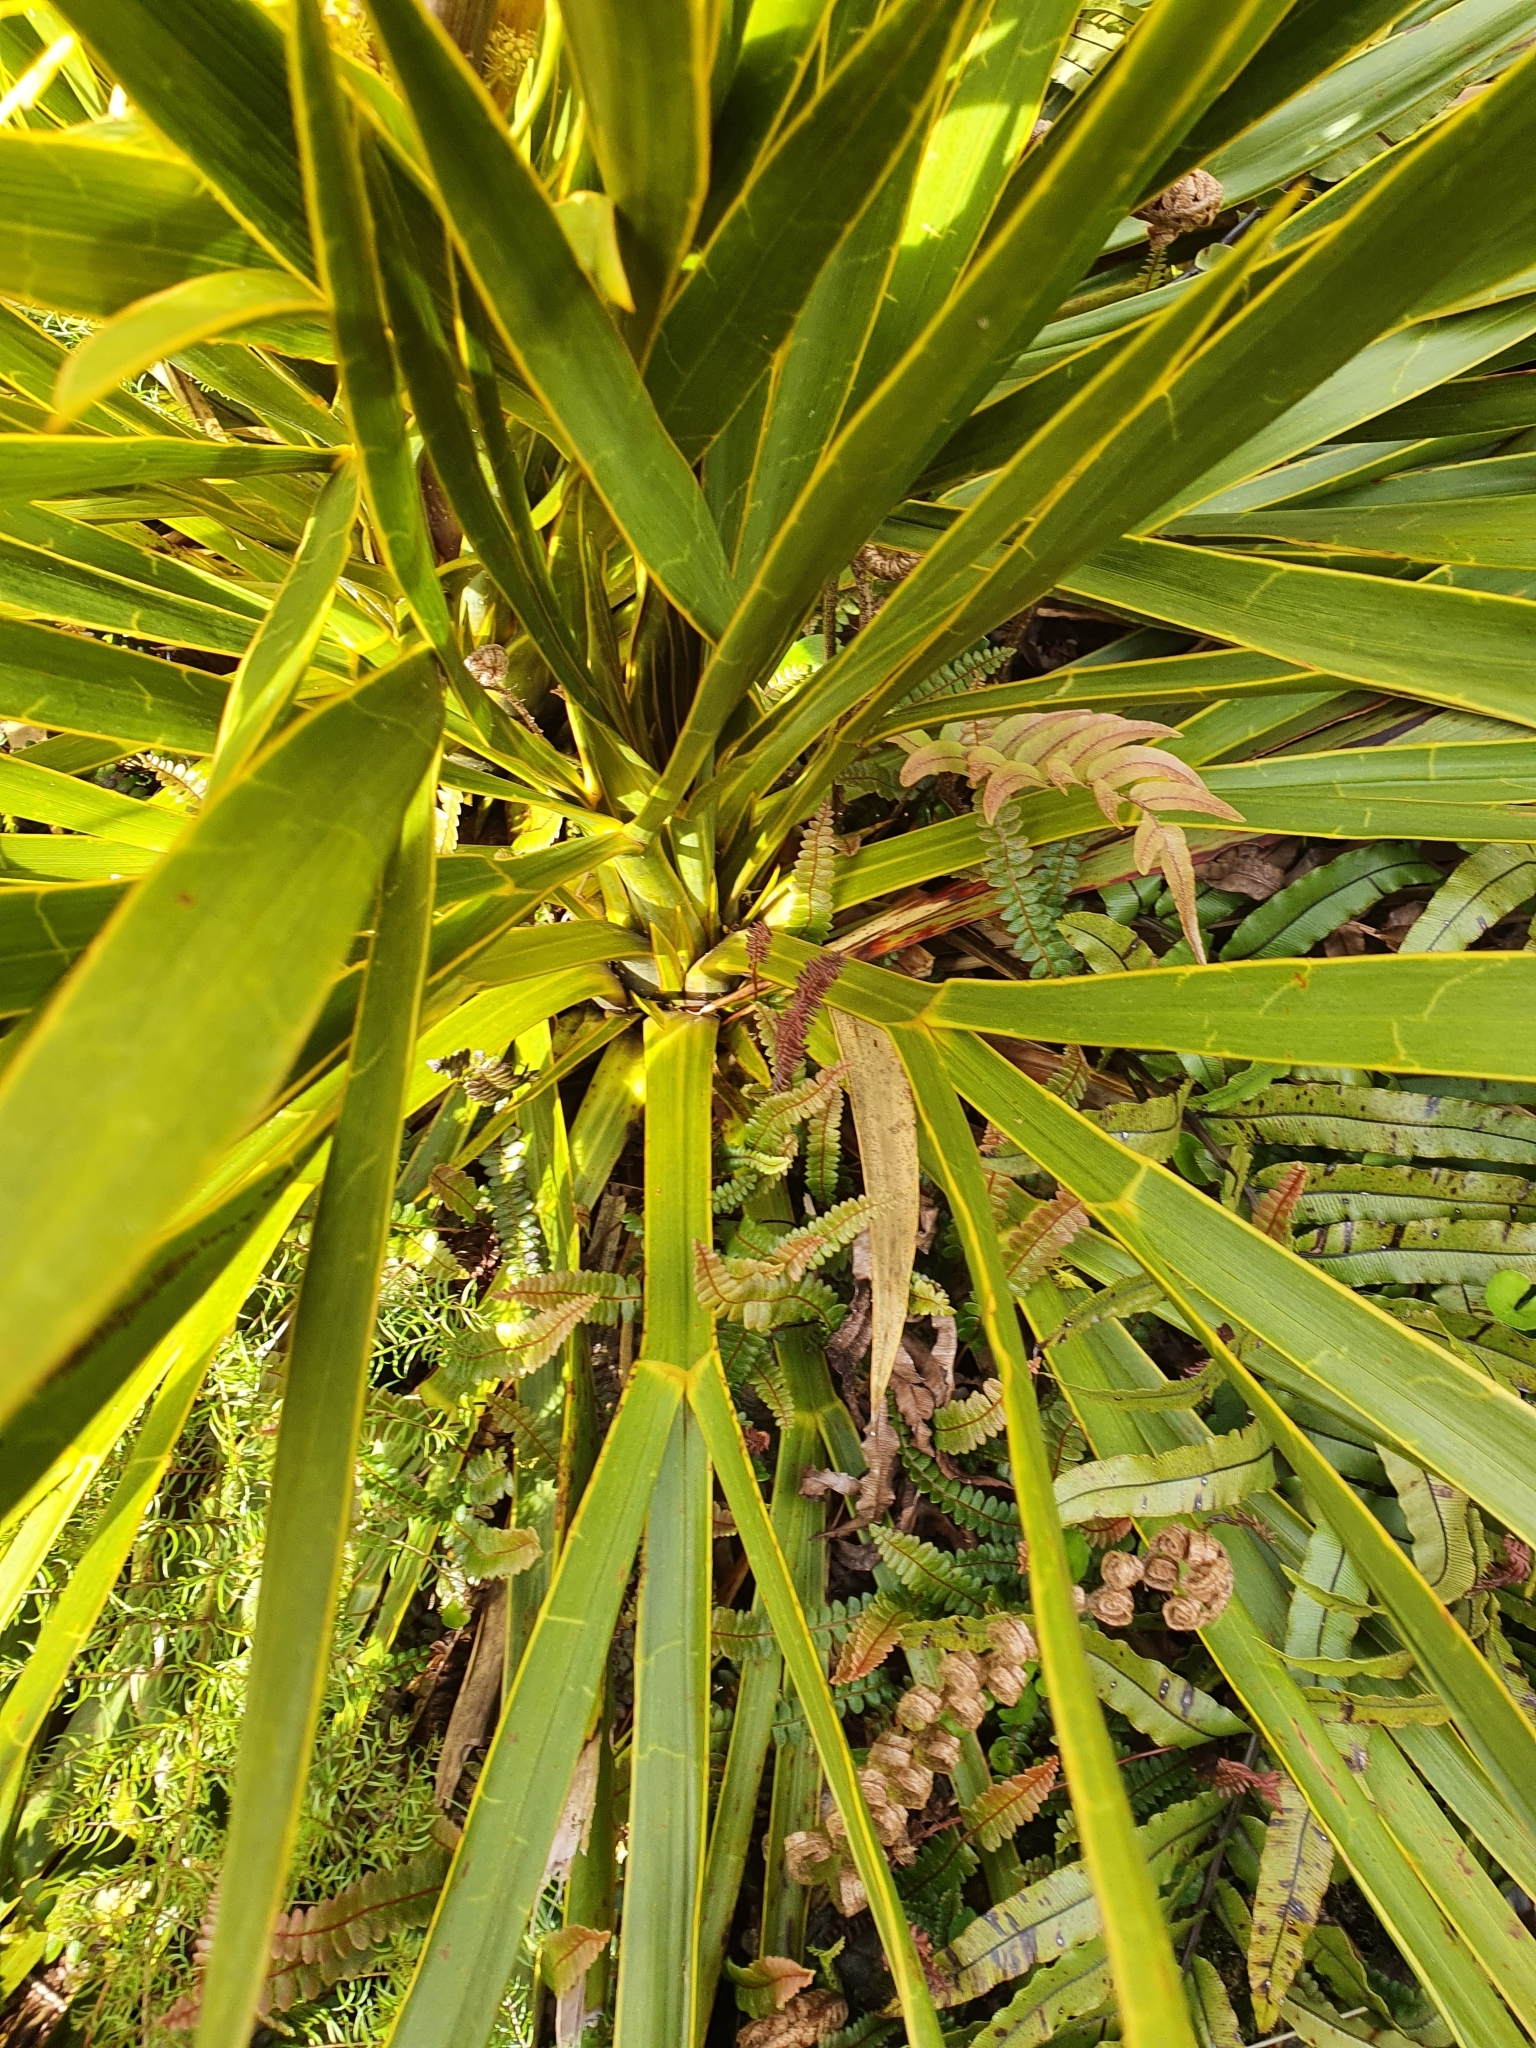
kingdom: Plantae
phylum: Tracheophyta
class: Magnoliopsida
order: Apiales
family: Apiaceae
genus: Aciphylla
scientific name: Aciphylla horrida
